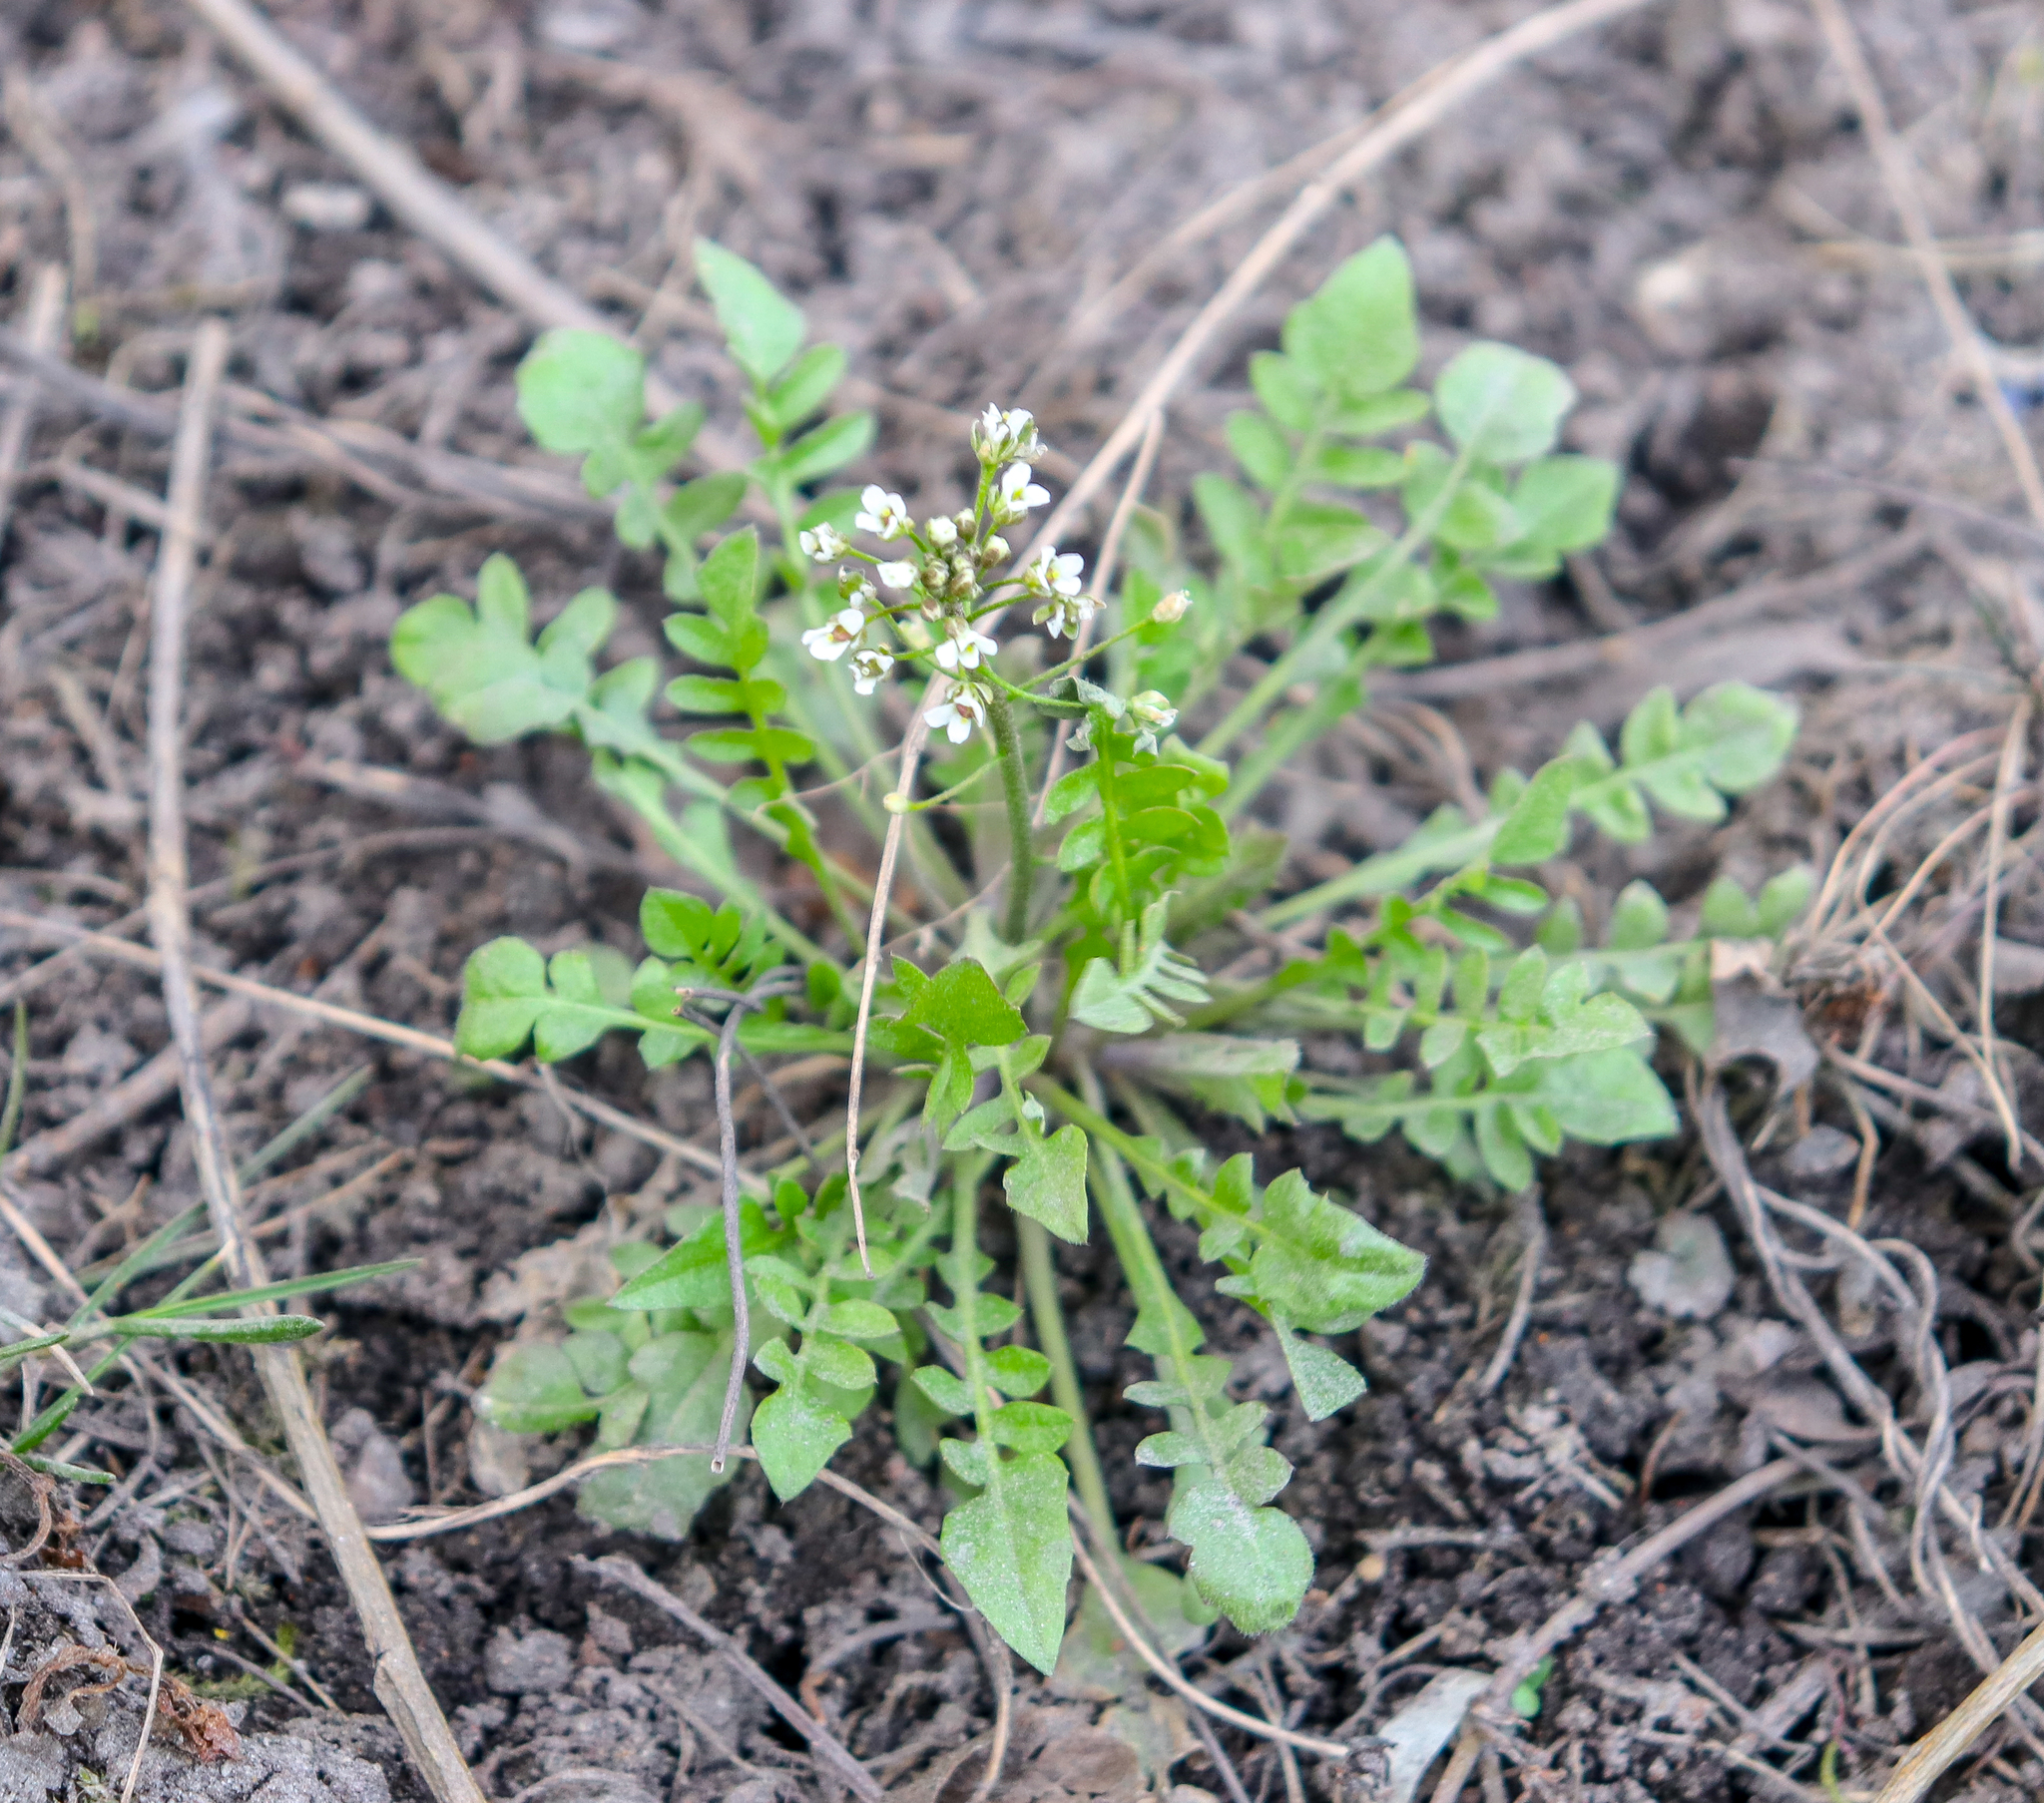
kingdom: Plantae
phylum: Tracheophyta
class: Magnoliopsida
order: Brassicales
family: Brassicaceae
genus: Capsella
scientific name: Capsella bursa-pastoris
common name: Shepherd's purse
